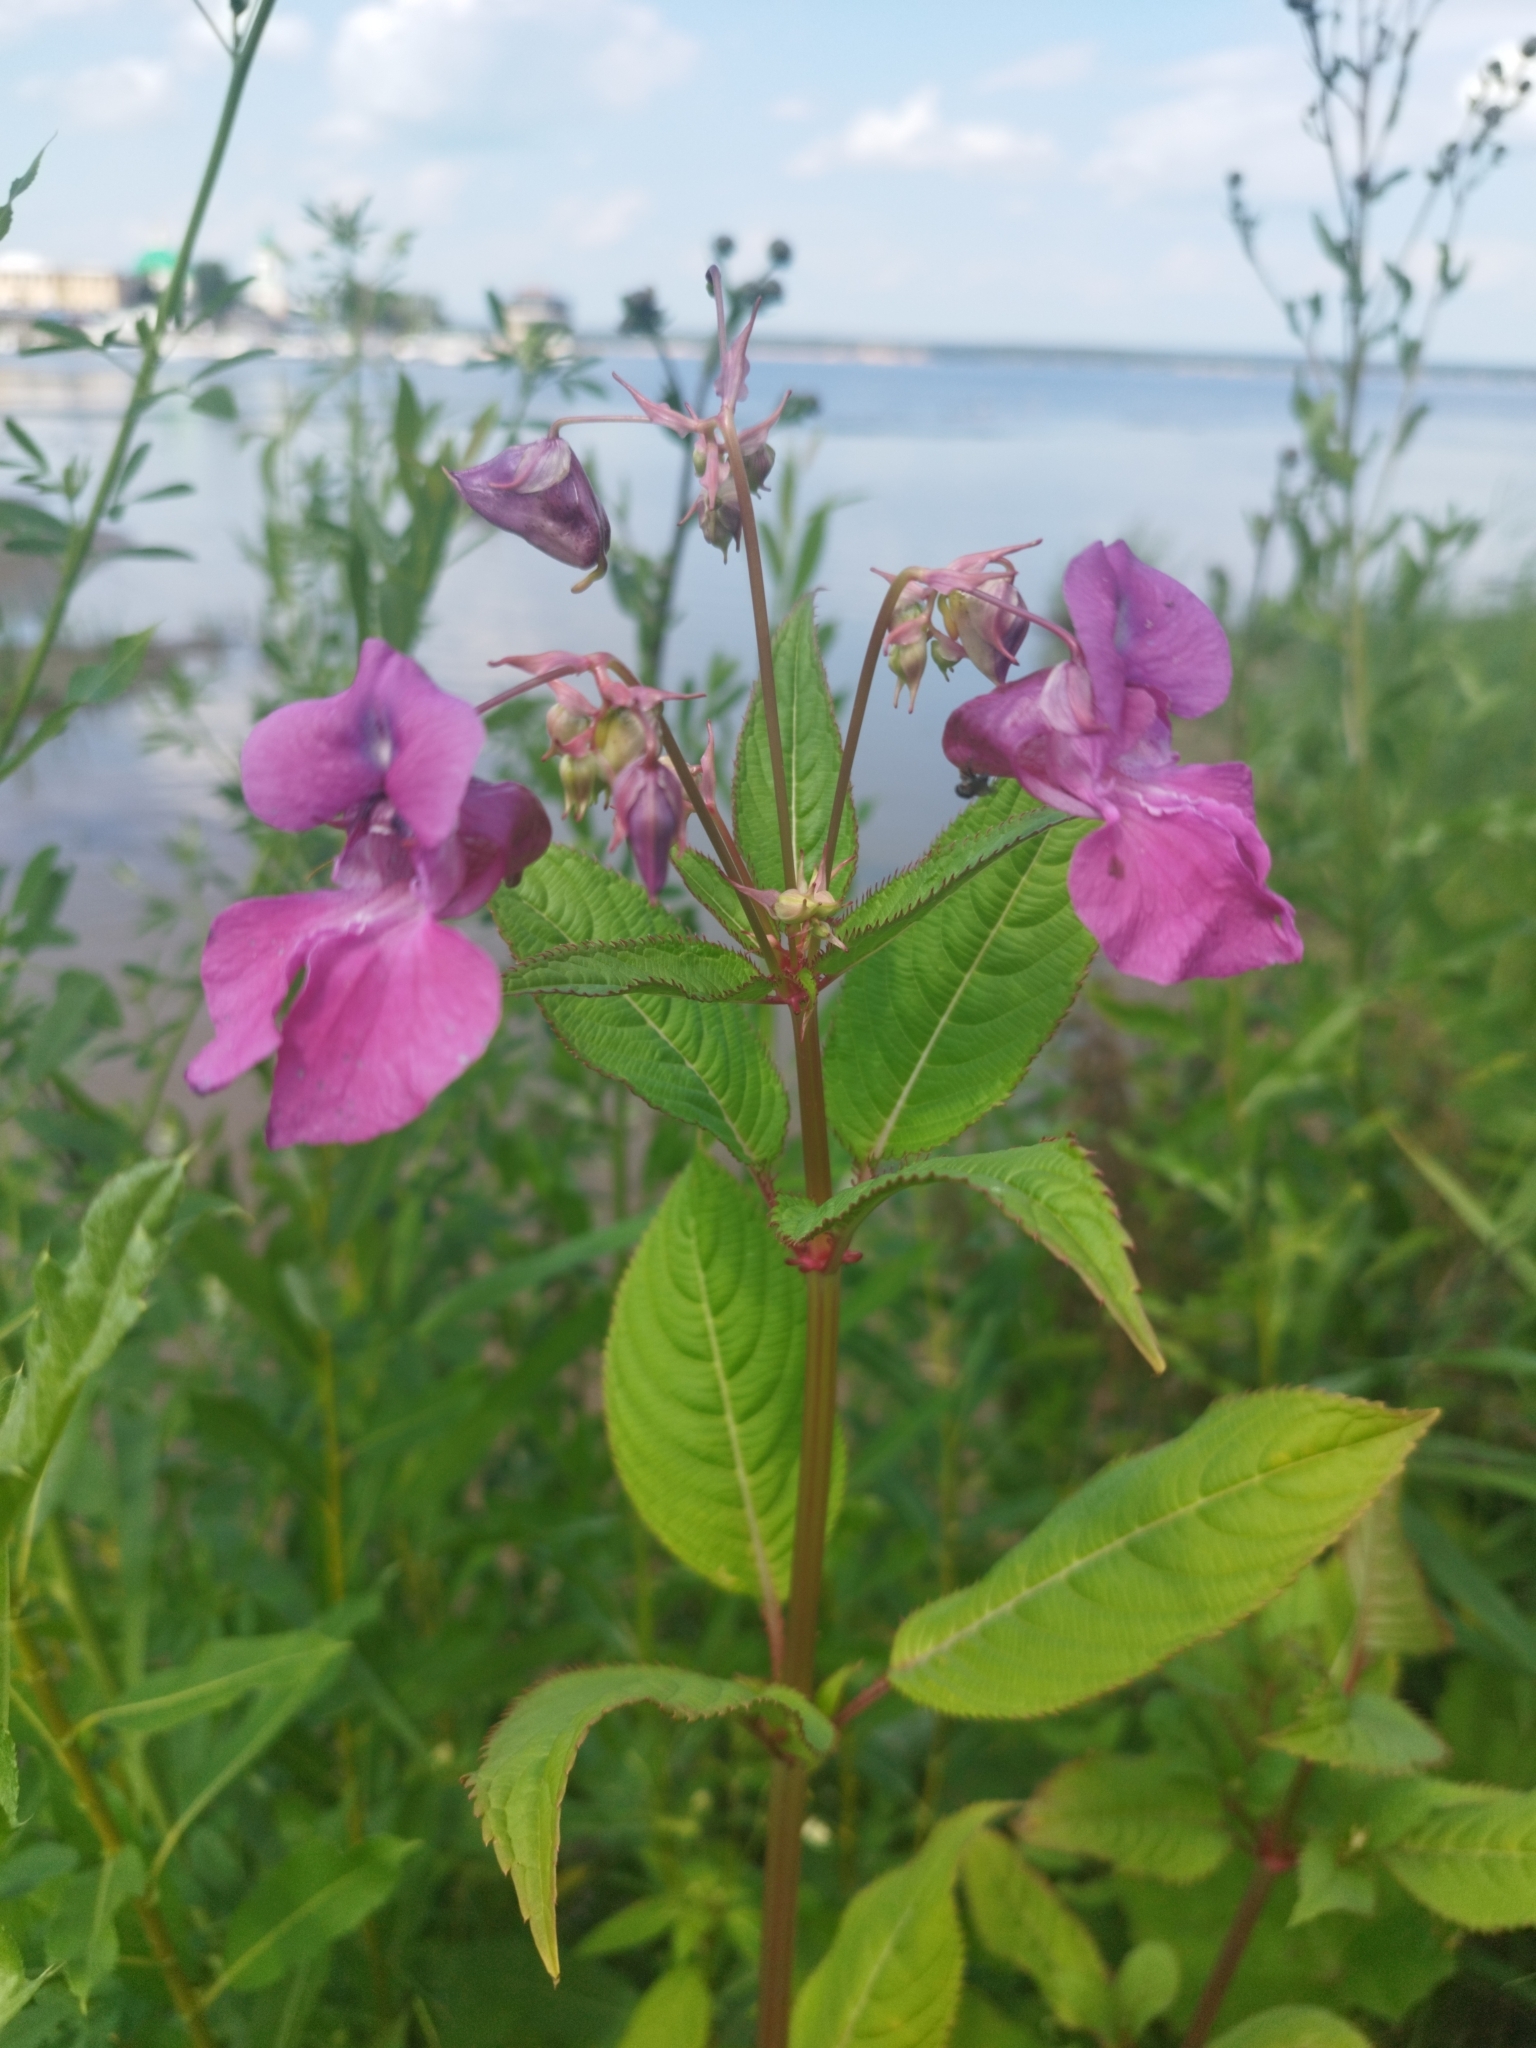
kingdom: Plantae
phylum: Tracheophyta
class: Magnoliopsida
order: Ericales
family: Balsaminaceae
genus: Impatiens
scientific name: Impatiens glandulifera
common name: Himalayan balsam
